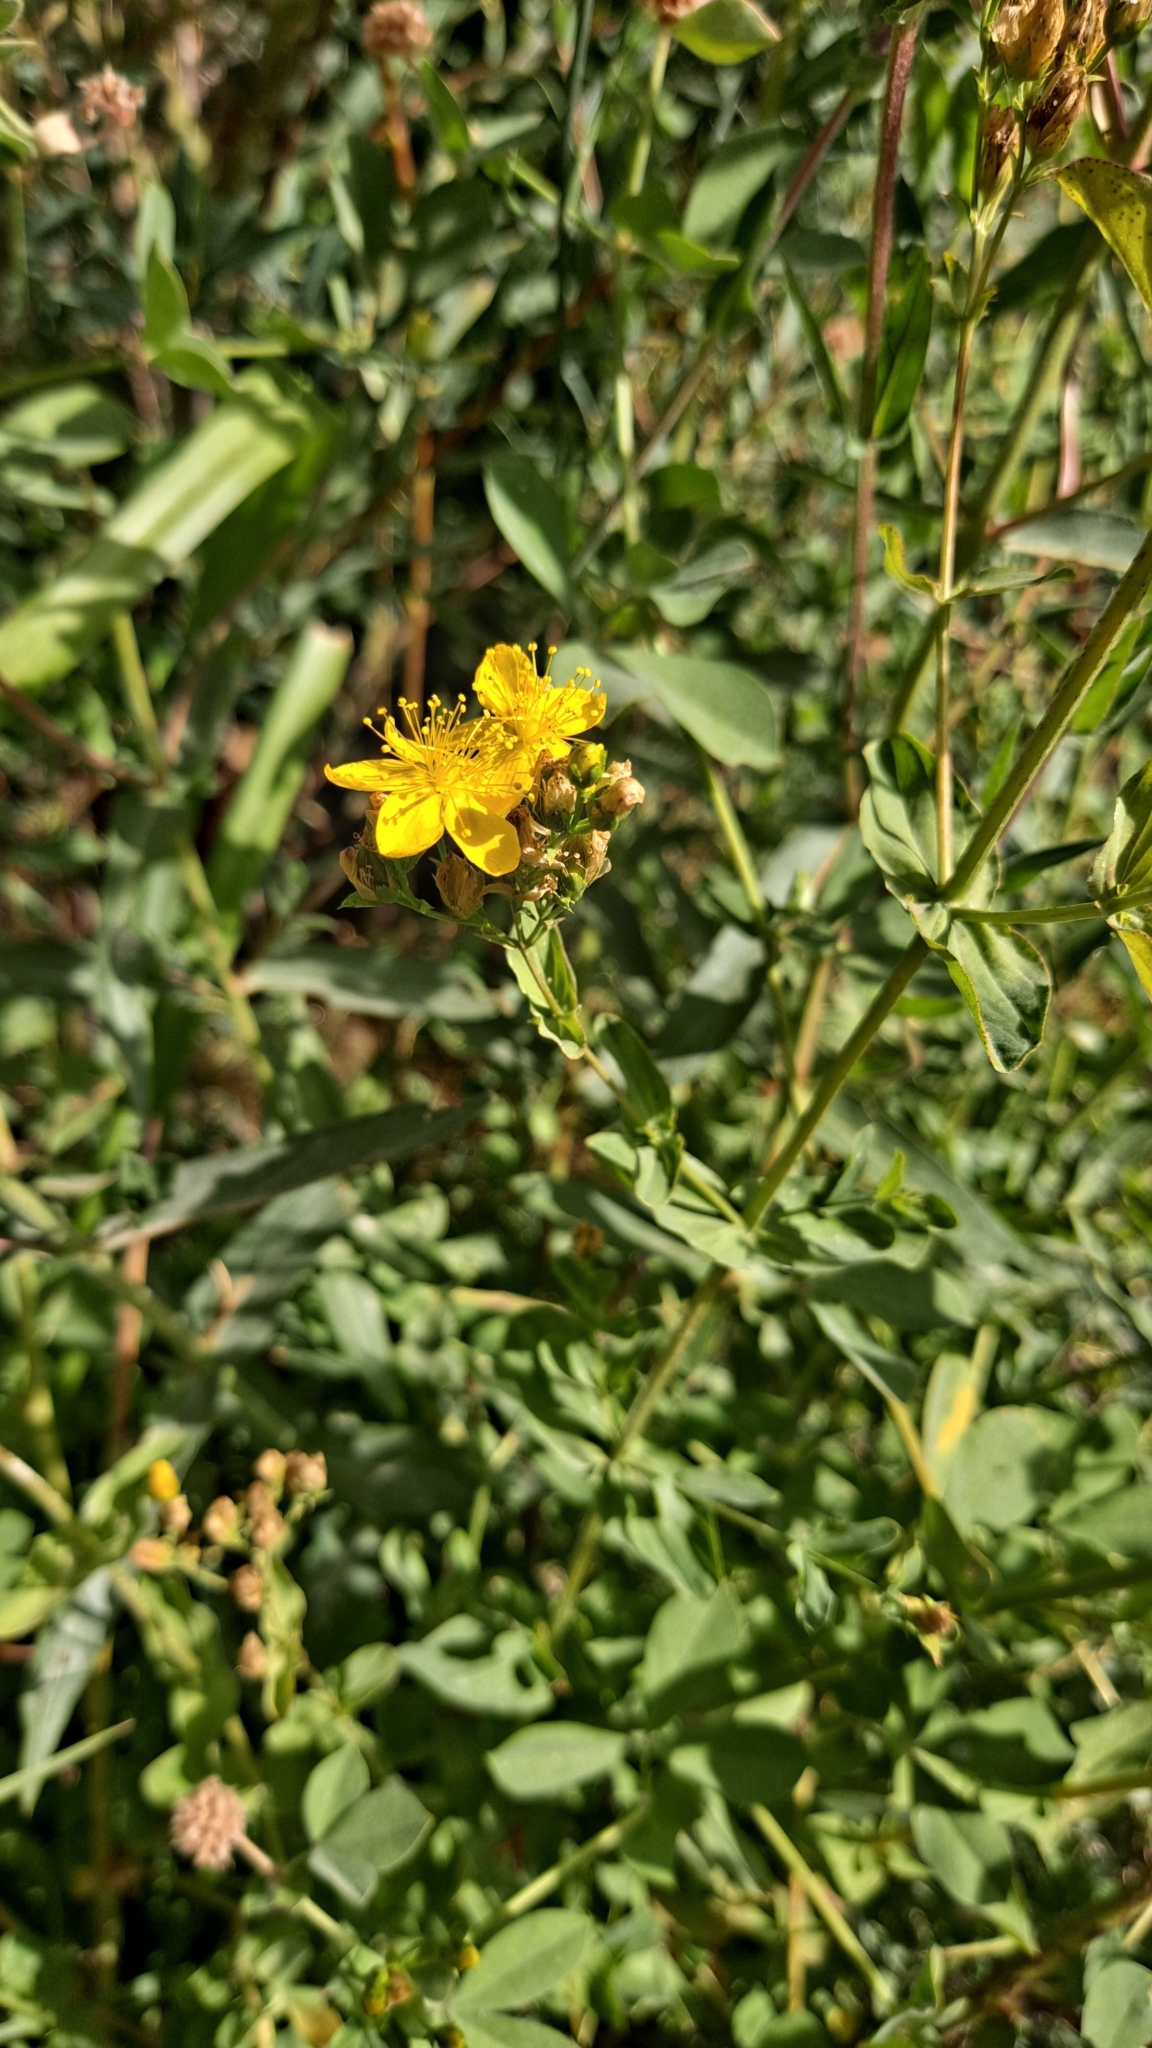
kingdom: Plantae
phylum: Tracheophyta
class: Magnoliopsida
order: Malpighiales
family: Hypericaceae
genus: Hypericum
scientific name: Hypericum undulatum
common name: Wavy st. john's-wort
